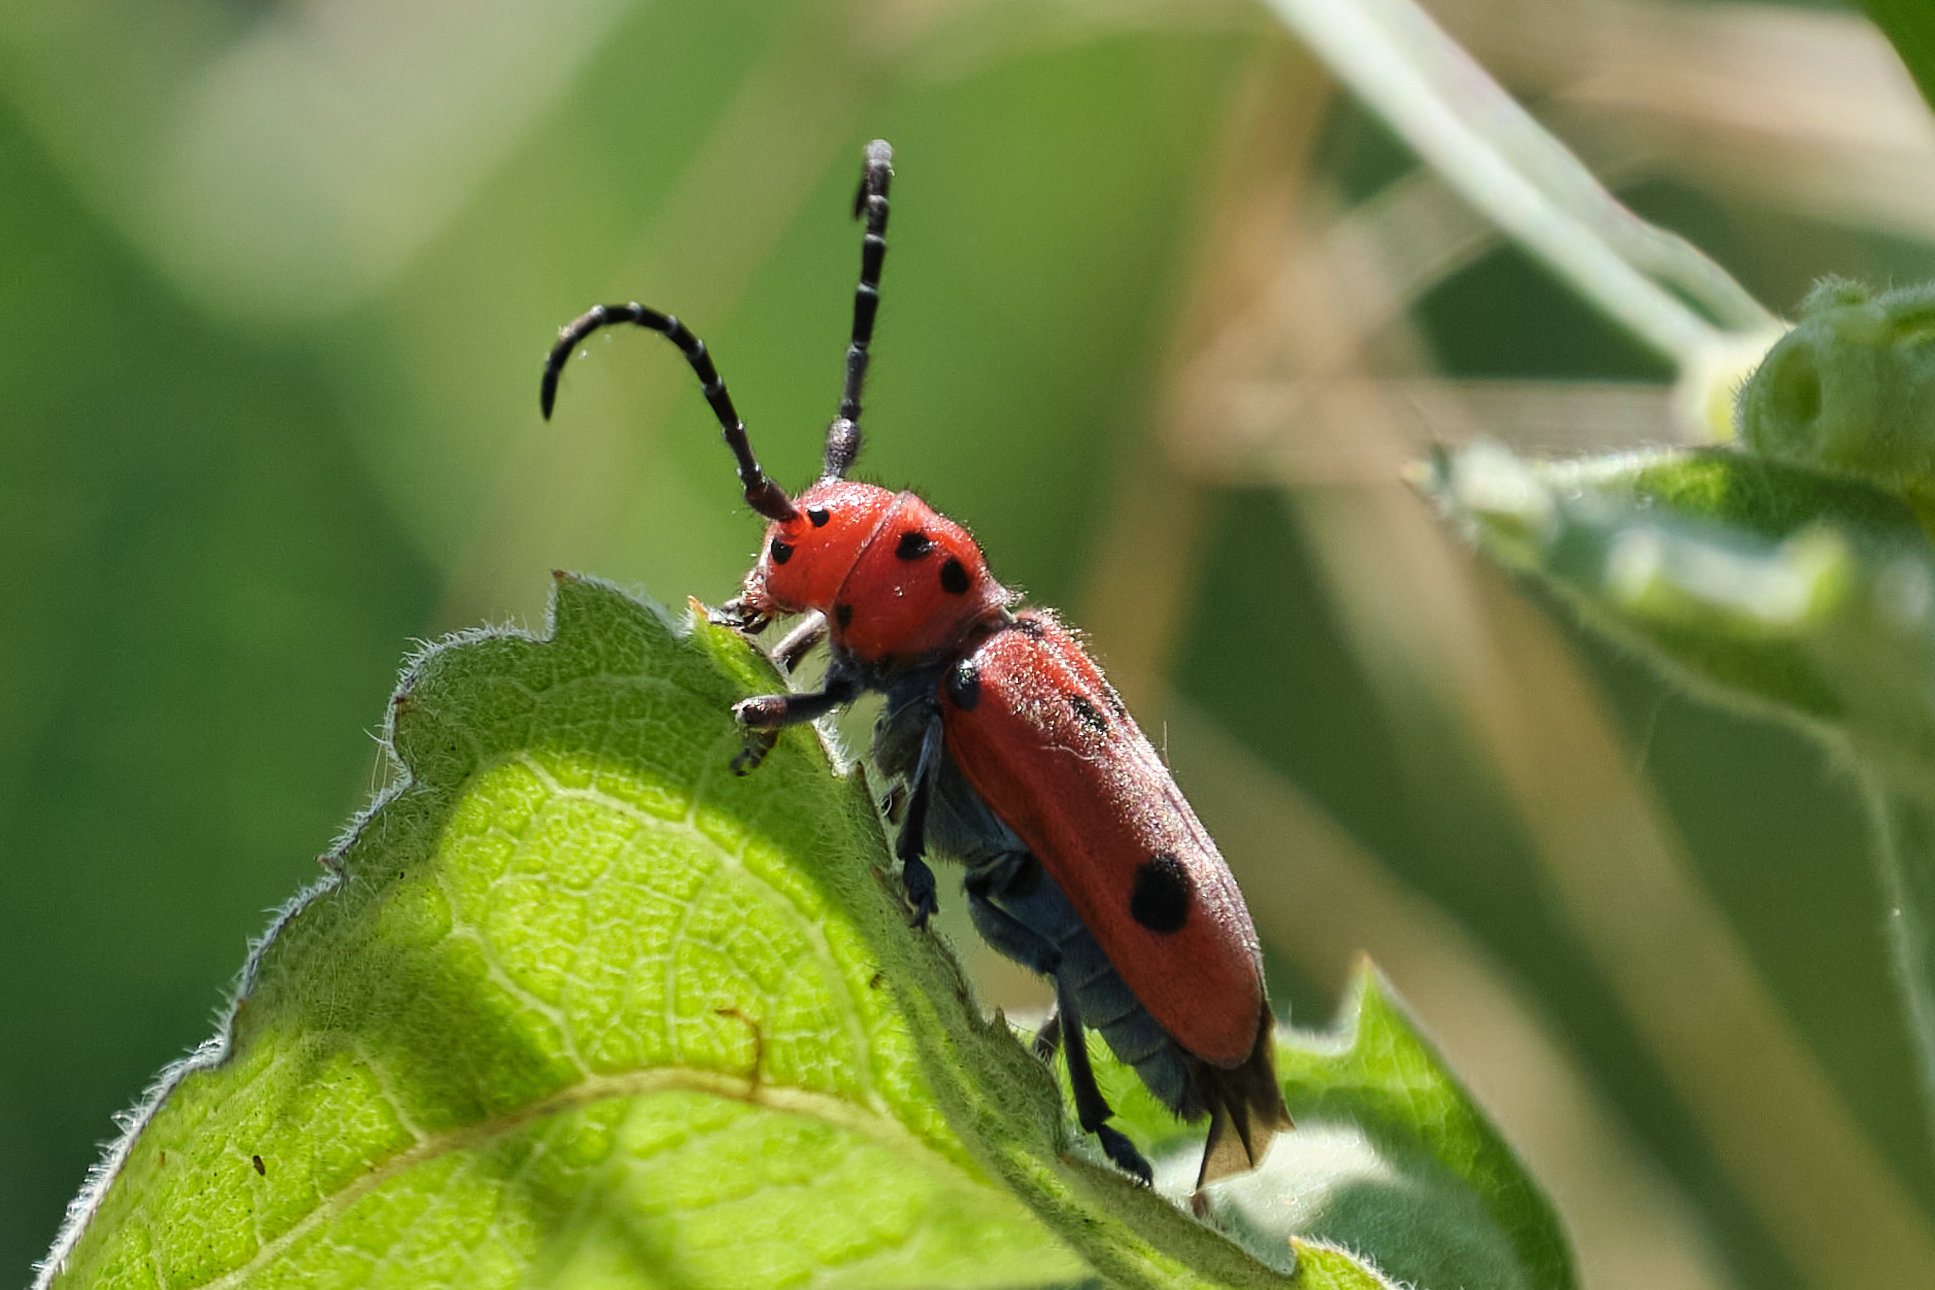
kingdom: Animalia
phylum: Arthropoda
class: Insecta
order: Coleoptera
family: Cerambycidae
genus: Tetraopes
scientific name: Tetraopes basalis
